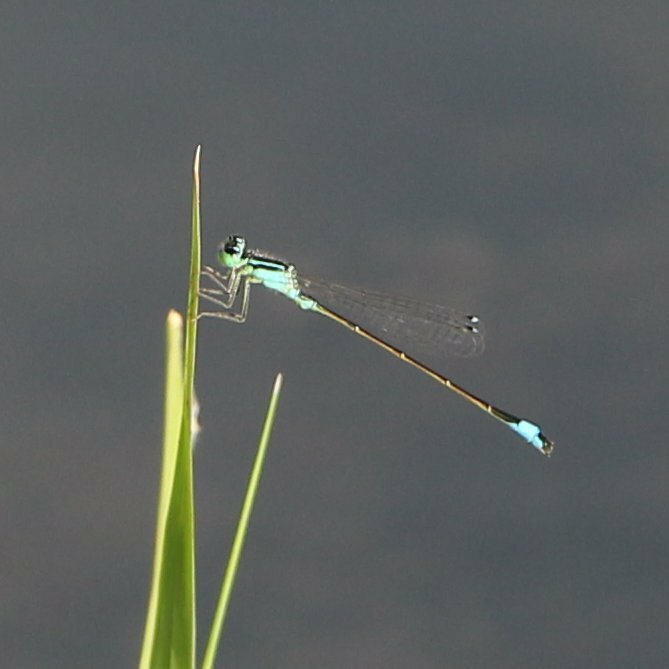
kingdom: Animalia
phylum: Arthropoda
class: Insecta
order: Odonata
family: Coenagrionidae
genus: Ischnura
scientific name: Ischnura elegans
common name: Blue-tailed damselfly
